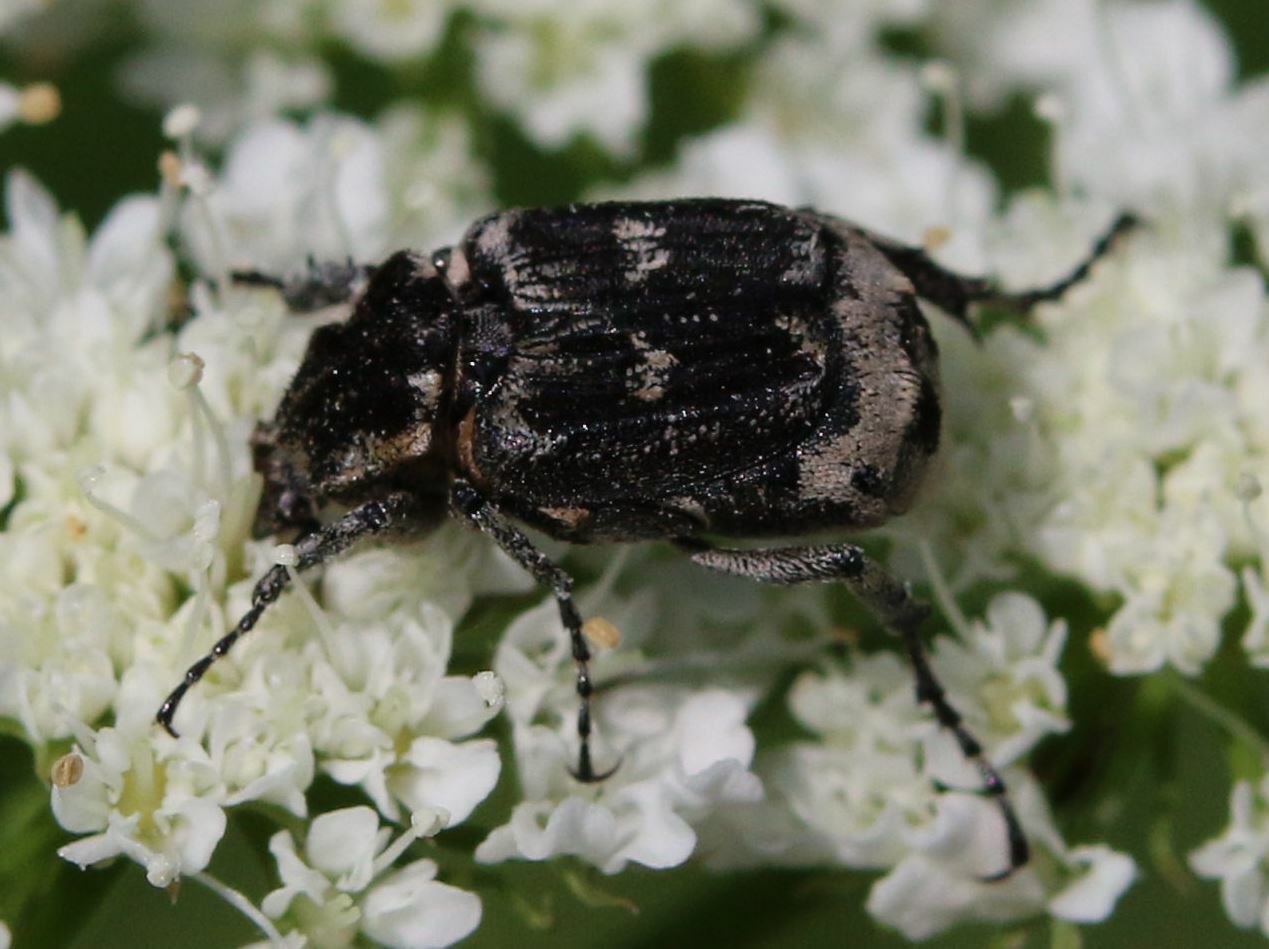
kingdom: Animalia
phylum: Arthropoda
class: Insecta
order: Coleoptera
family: Scarabaeidae
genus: Valgus
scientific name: Valgus hemipterus
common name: Bug flower chafer
